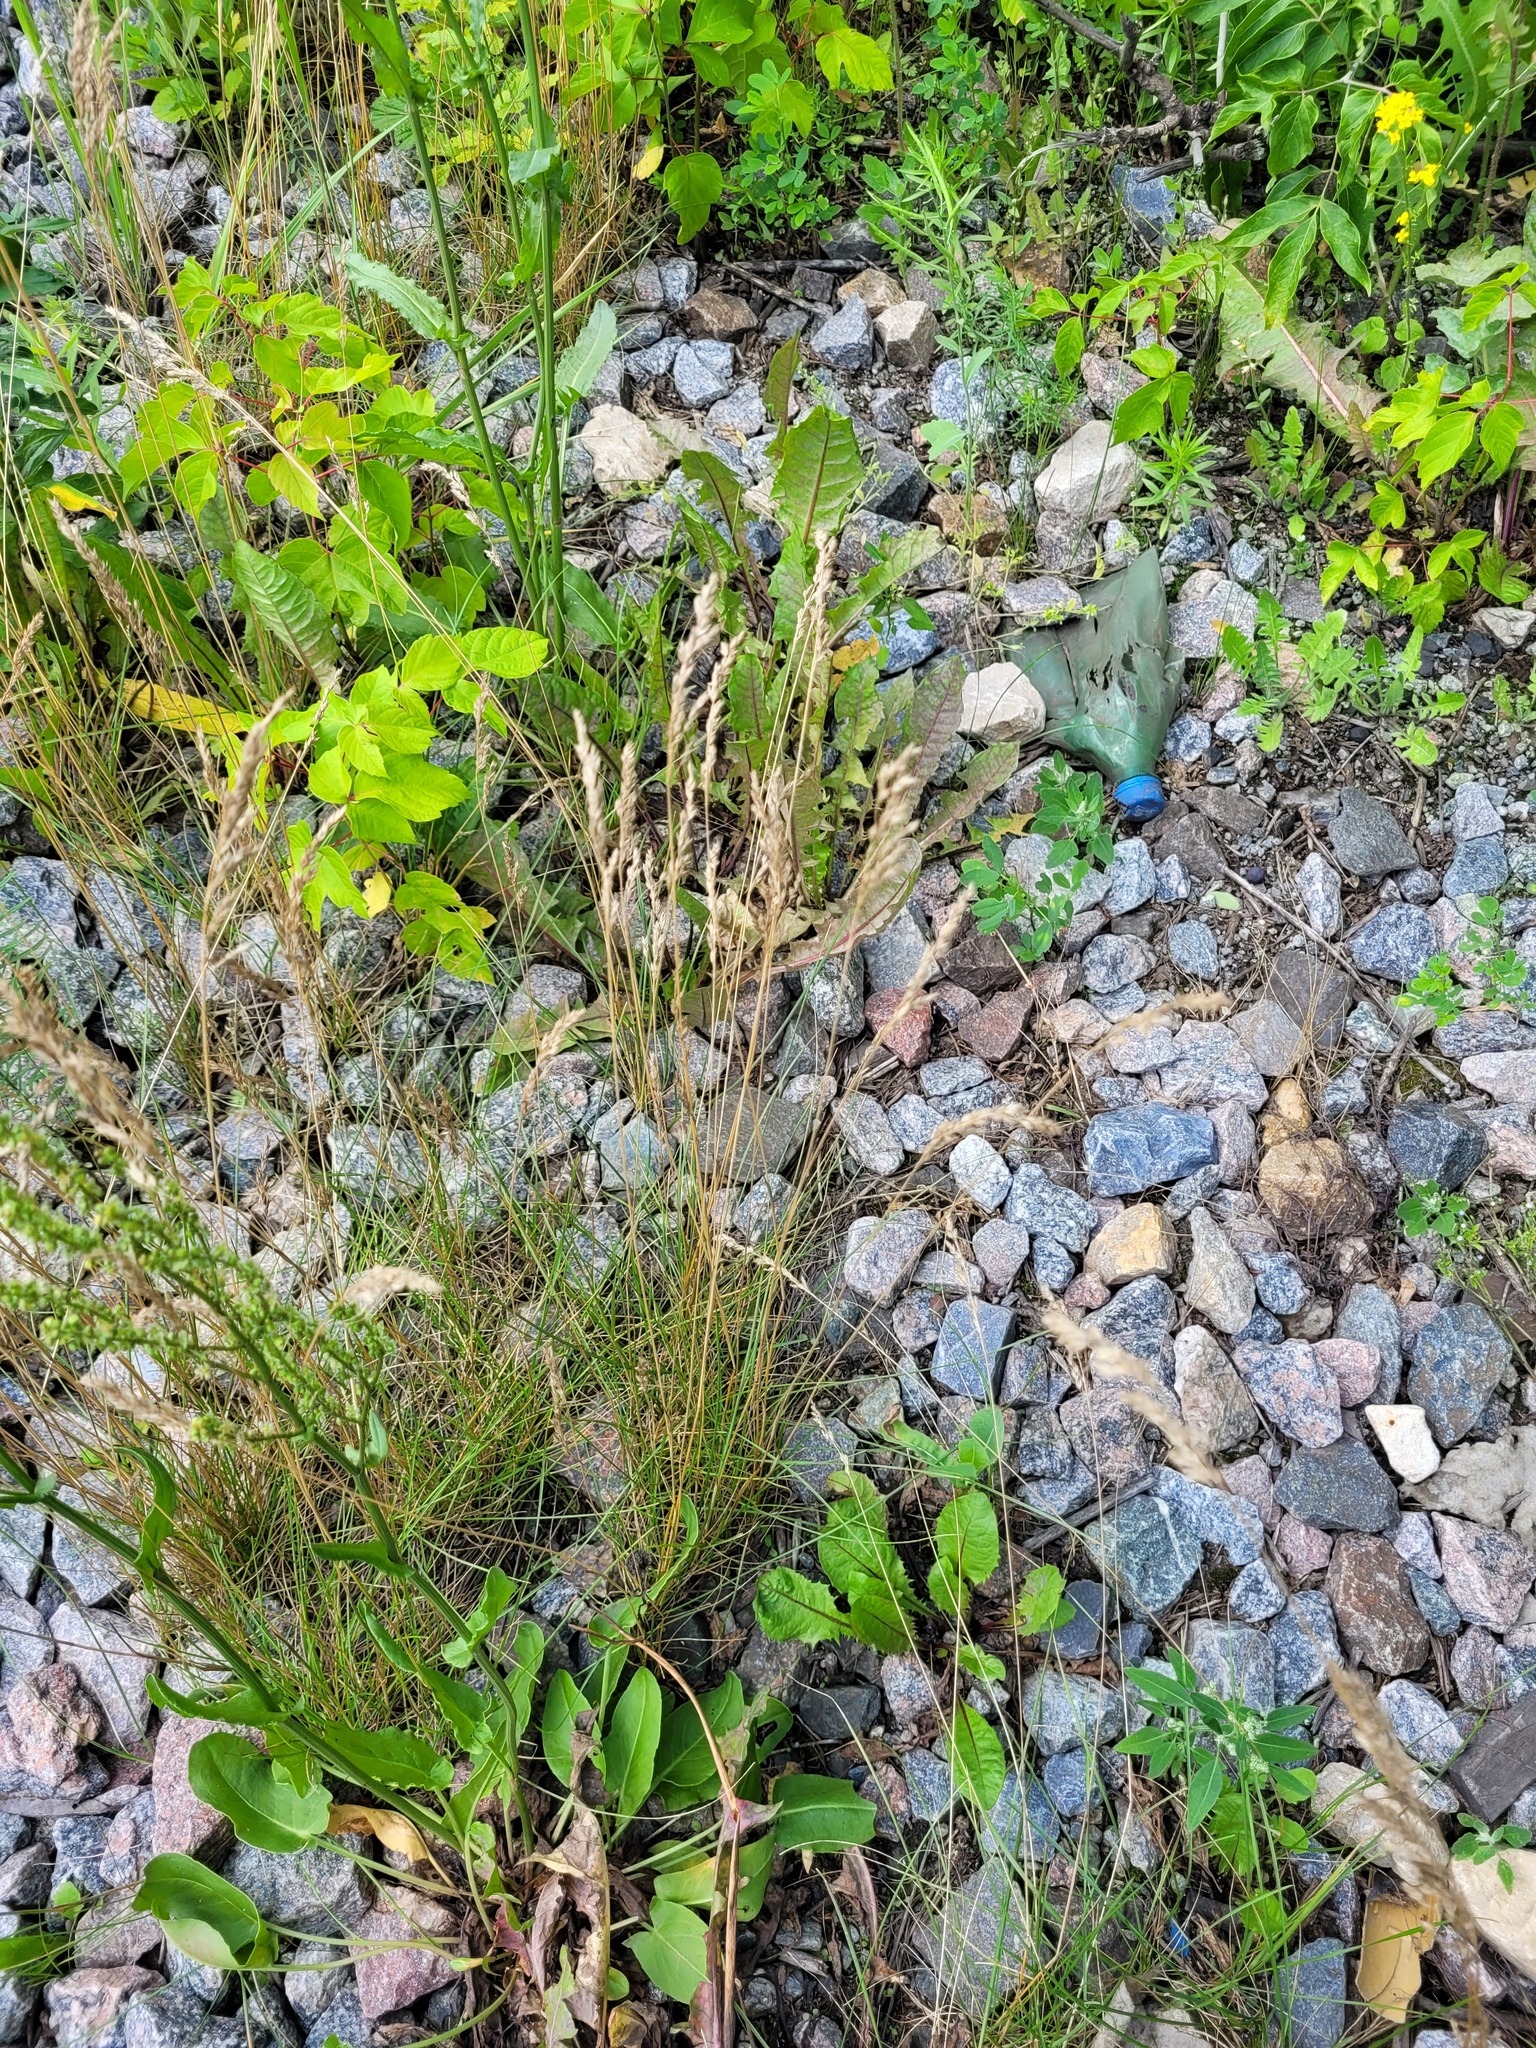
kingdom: Plantae
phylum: Tracheophyta
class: Liliopsida
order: Poales
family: Poaceae
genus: Festuca
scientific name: Festuca rubra
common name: Red fescue
